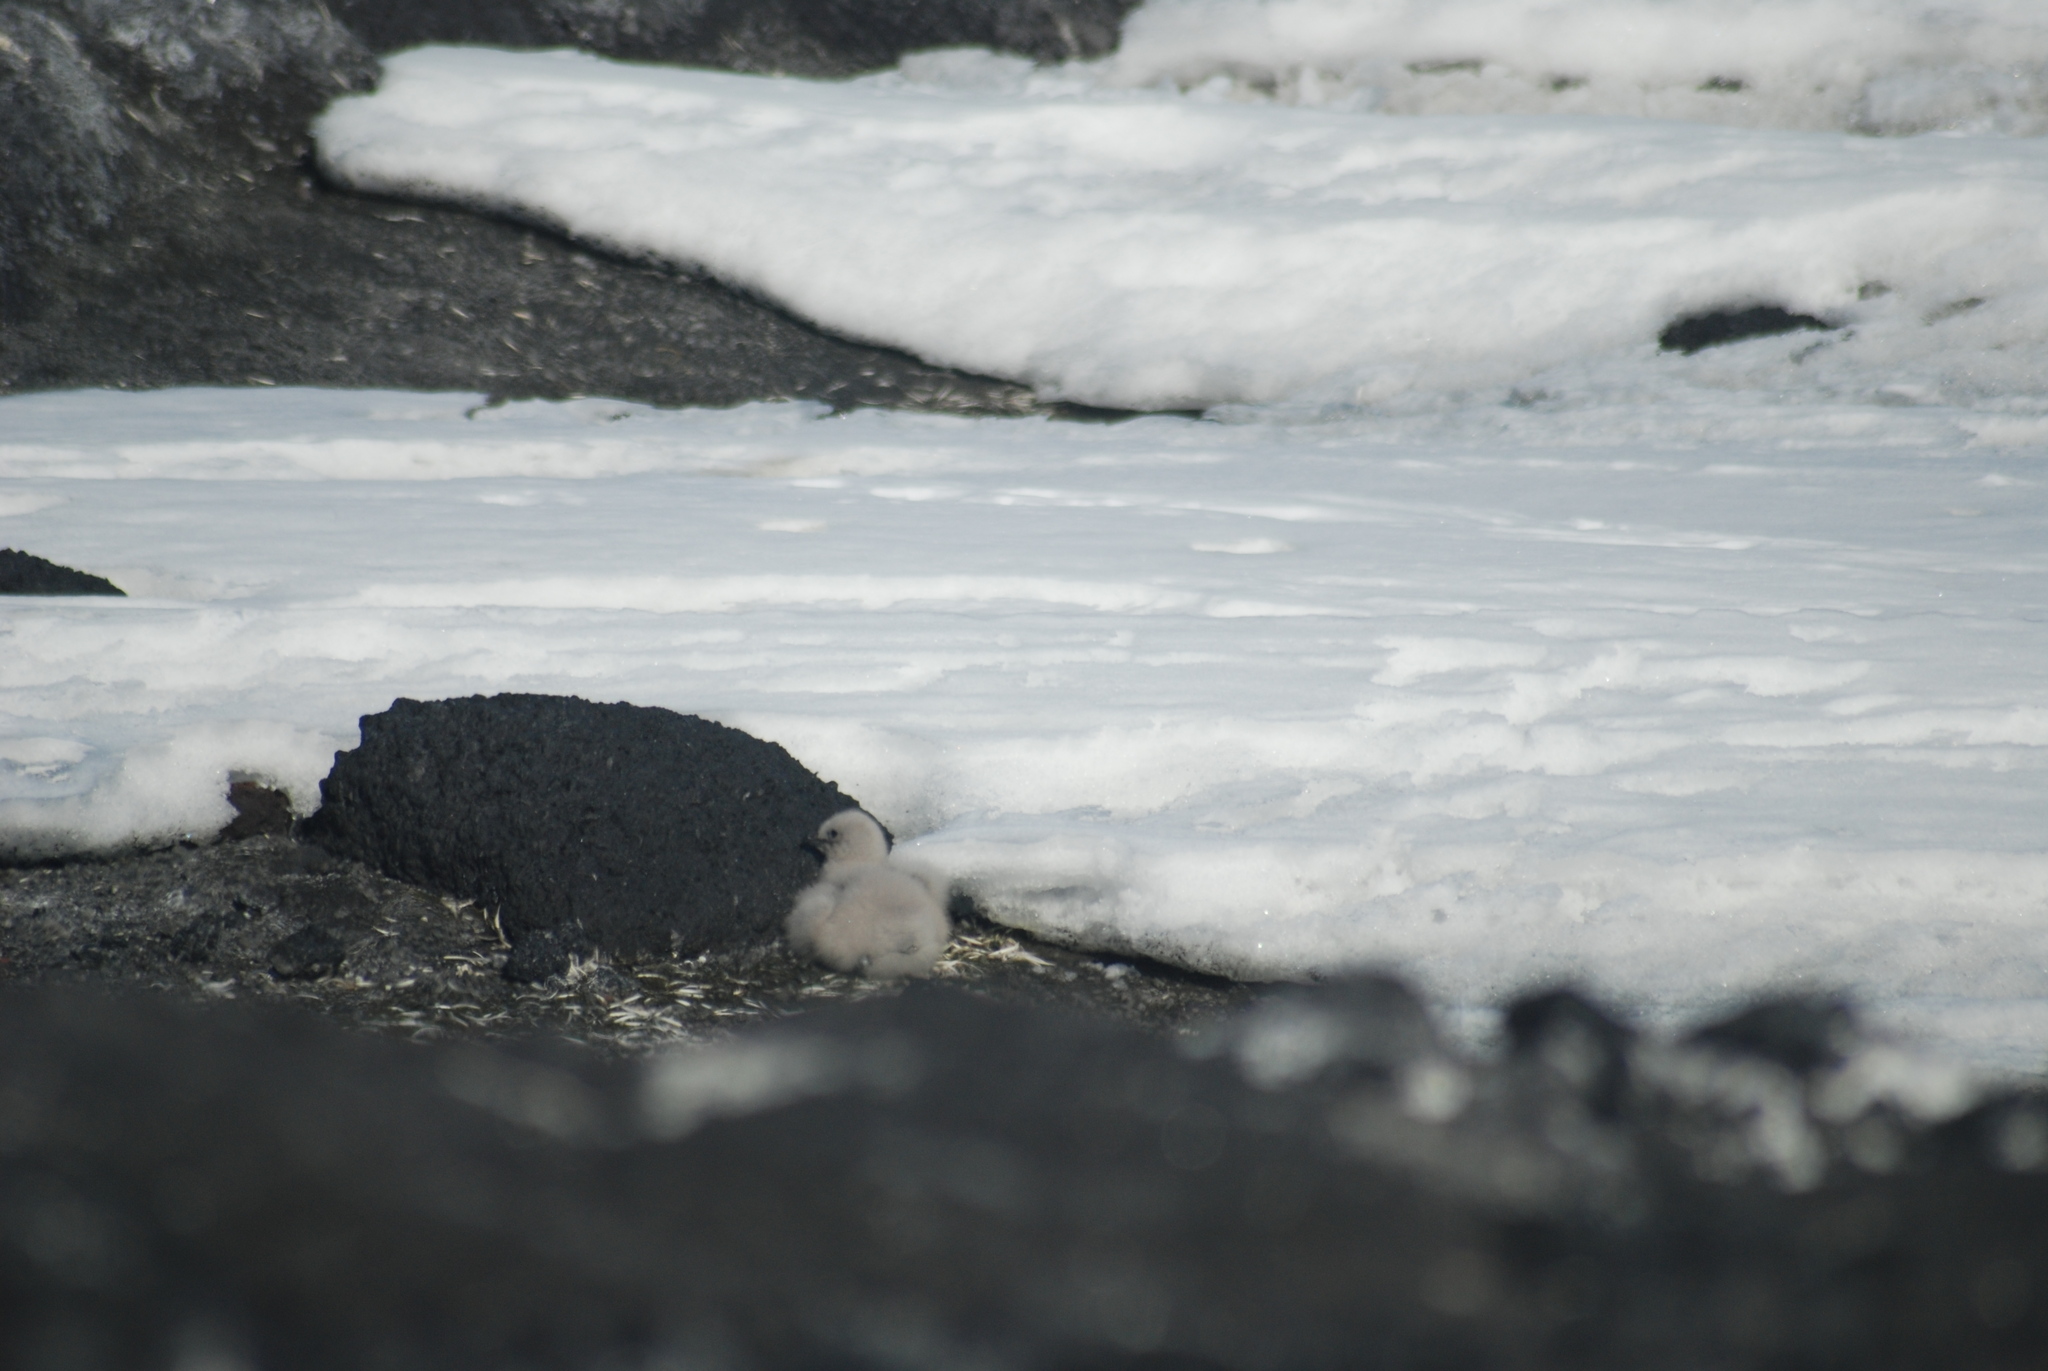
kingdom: Animalia
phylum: Chordata
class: Aves
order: Charadriiformes
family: Stercorariidae
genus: Stercorarius
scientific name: Stercorarius maccormicki
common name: South polar skua
